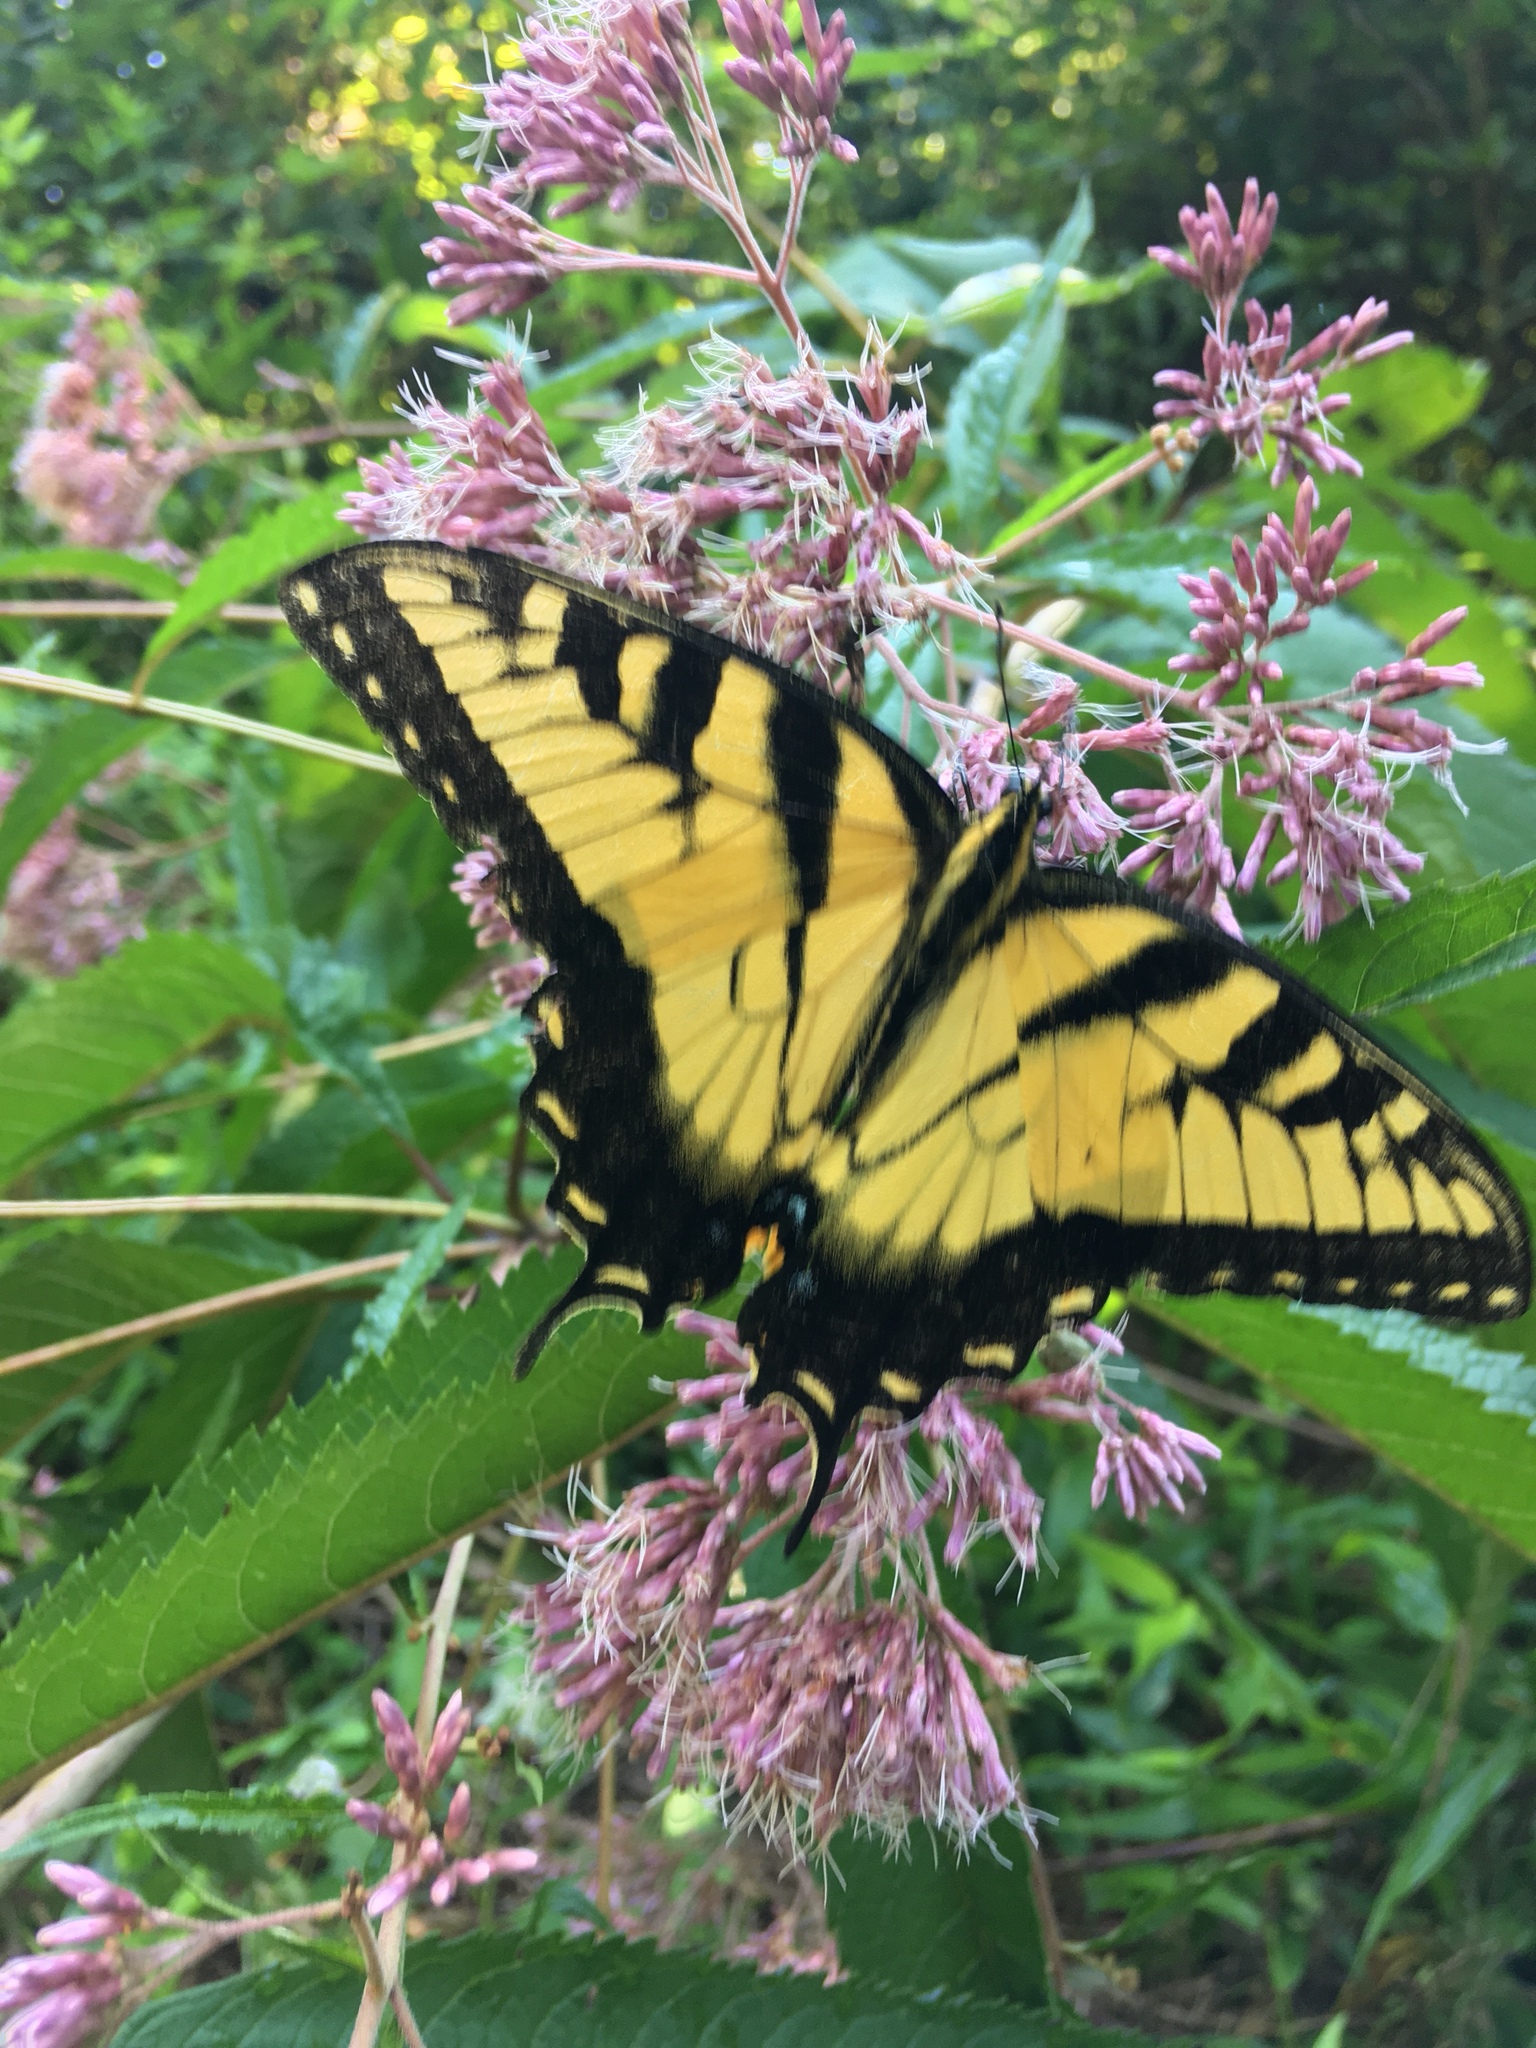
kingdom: Animalia
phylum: Arthropoda
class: Insecta
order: Lepidoptera
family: Papilionidae
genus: Papilio
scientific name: Papilio glaucus
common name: Tiger swallowtail
